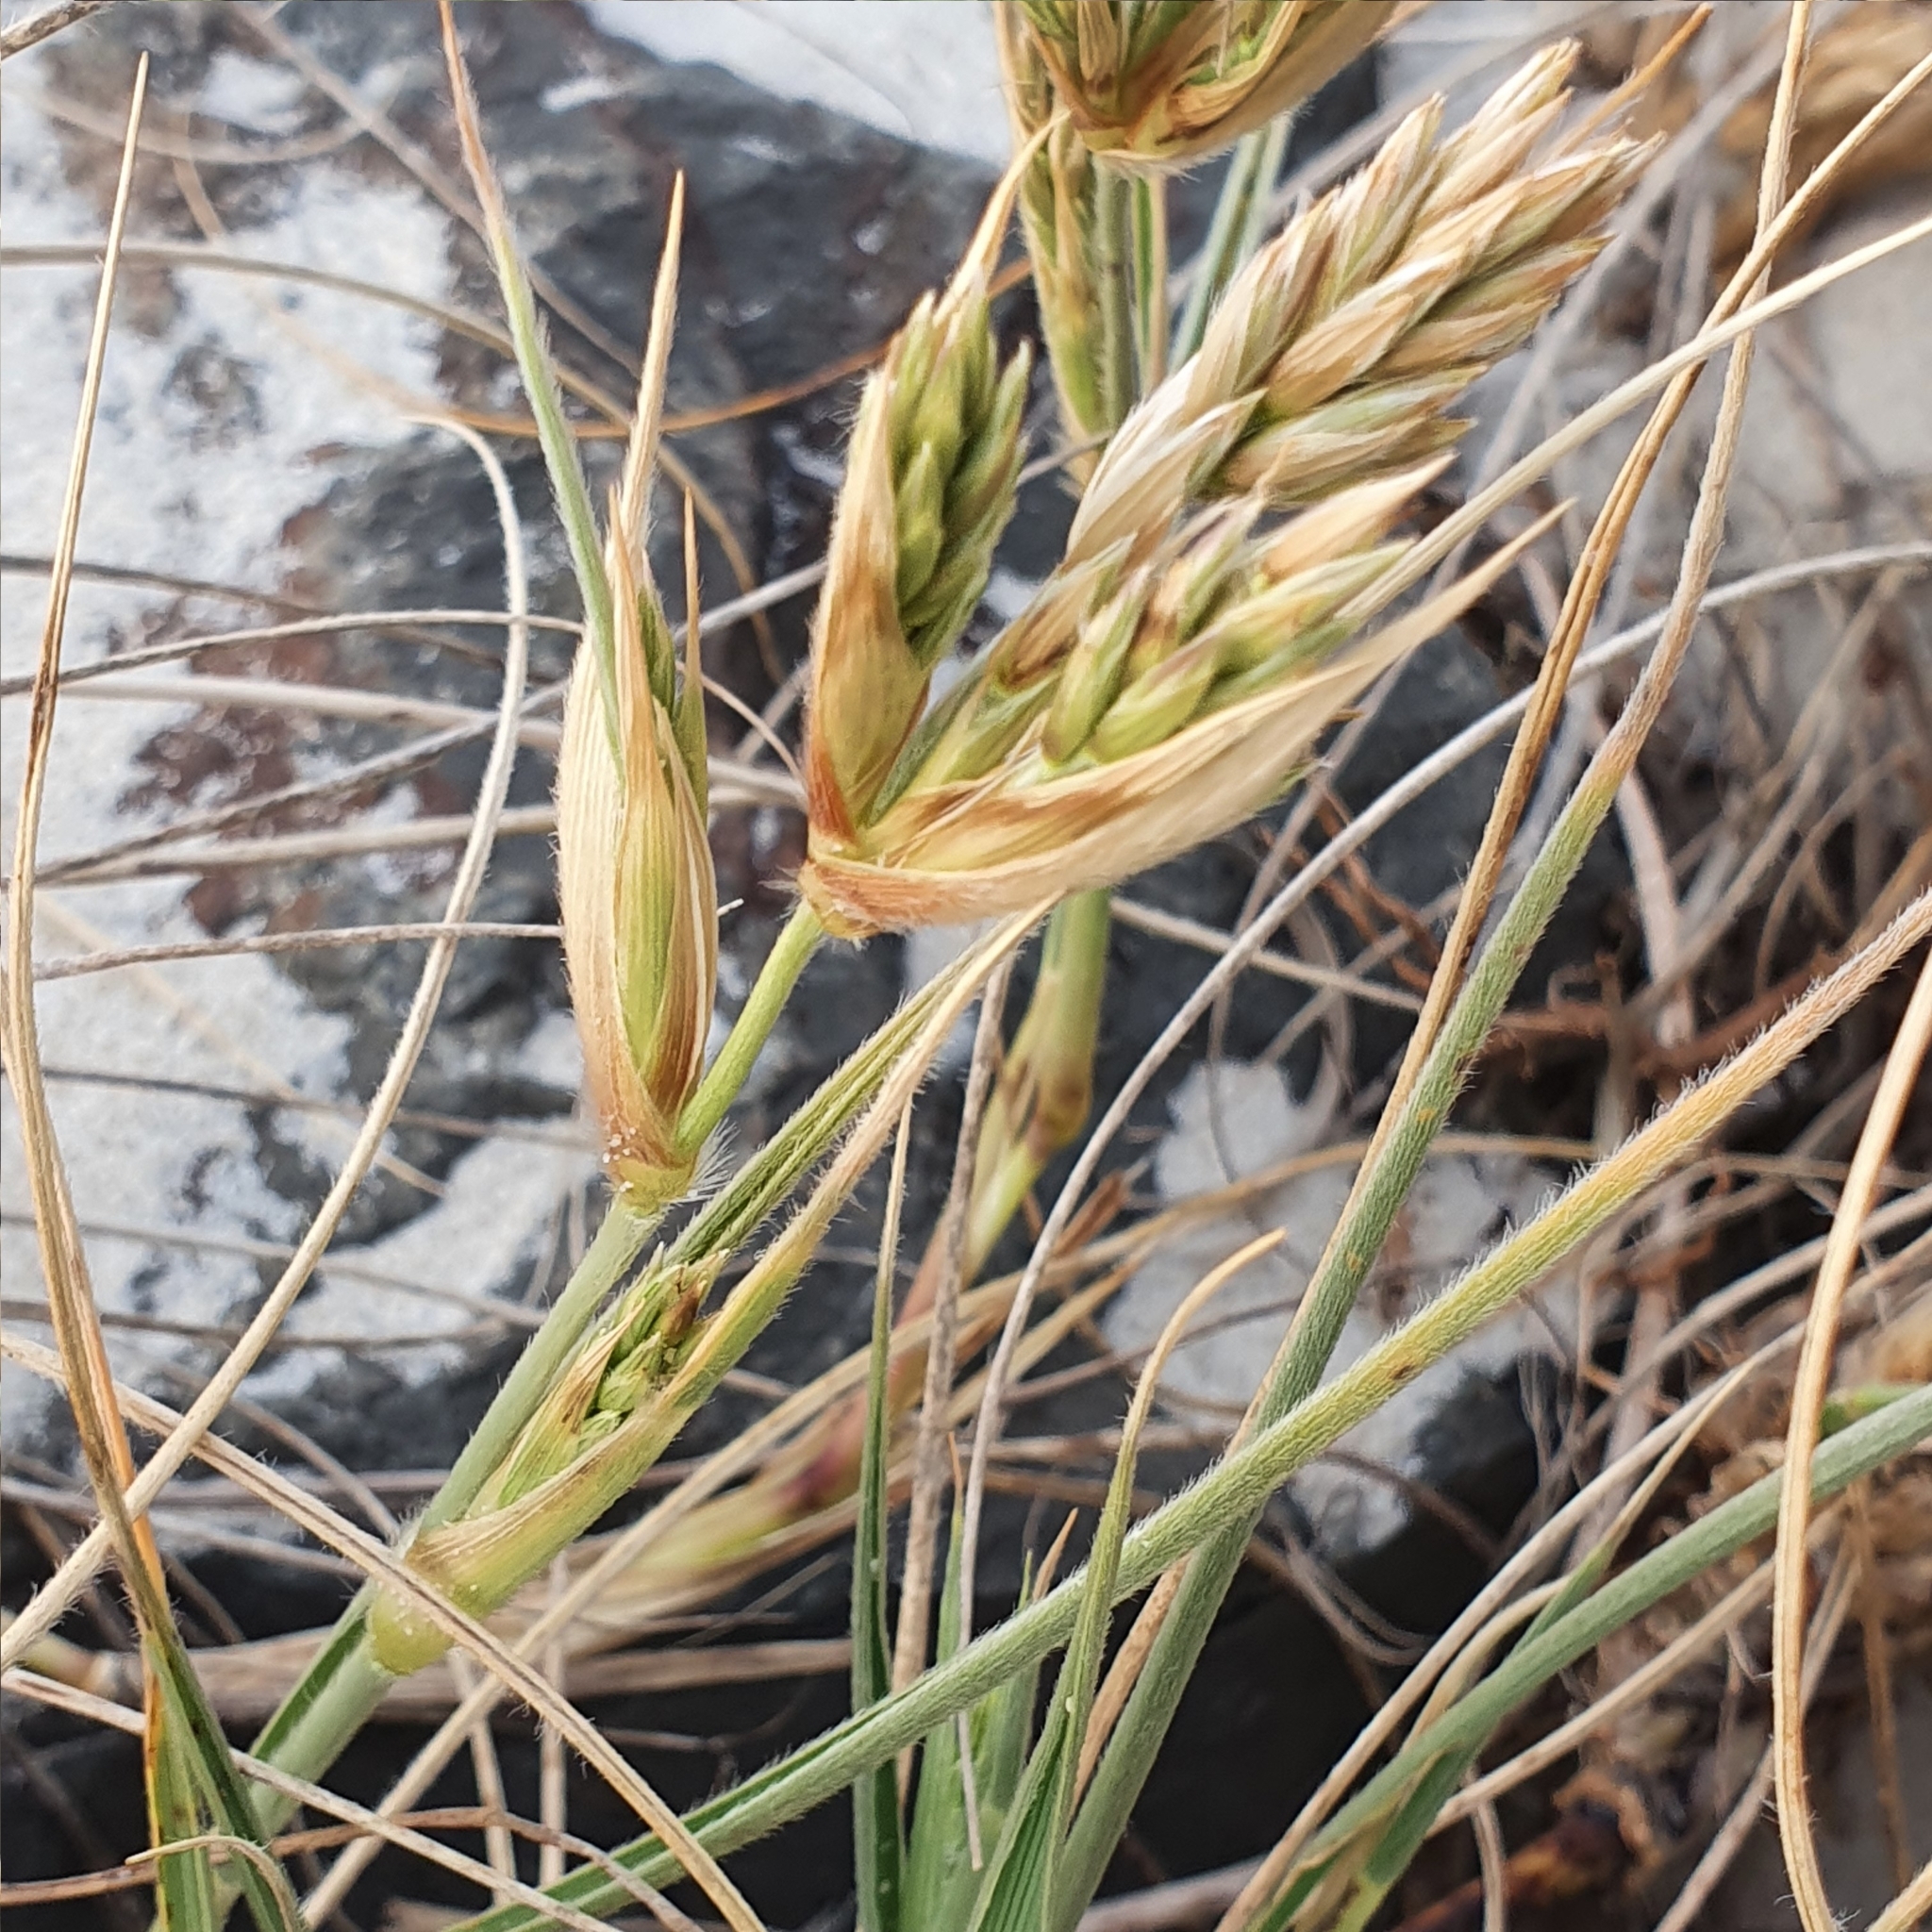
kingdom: Plantae
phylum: Tracheophyta
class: Liliopsida
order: Poales
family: Poaceae
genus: Spinifex
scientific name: Spinifex sericeus
